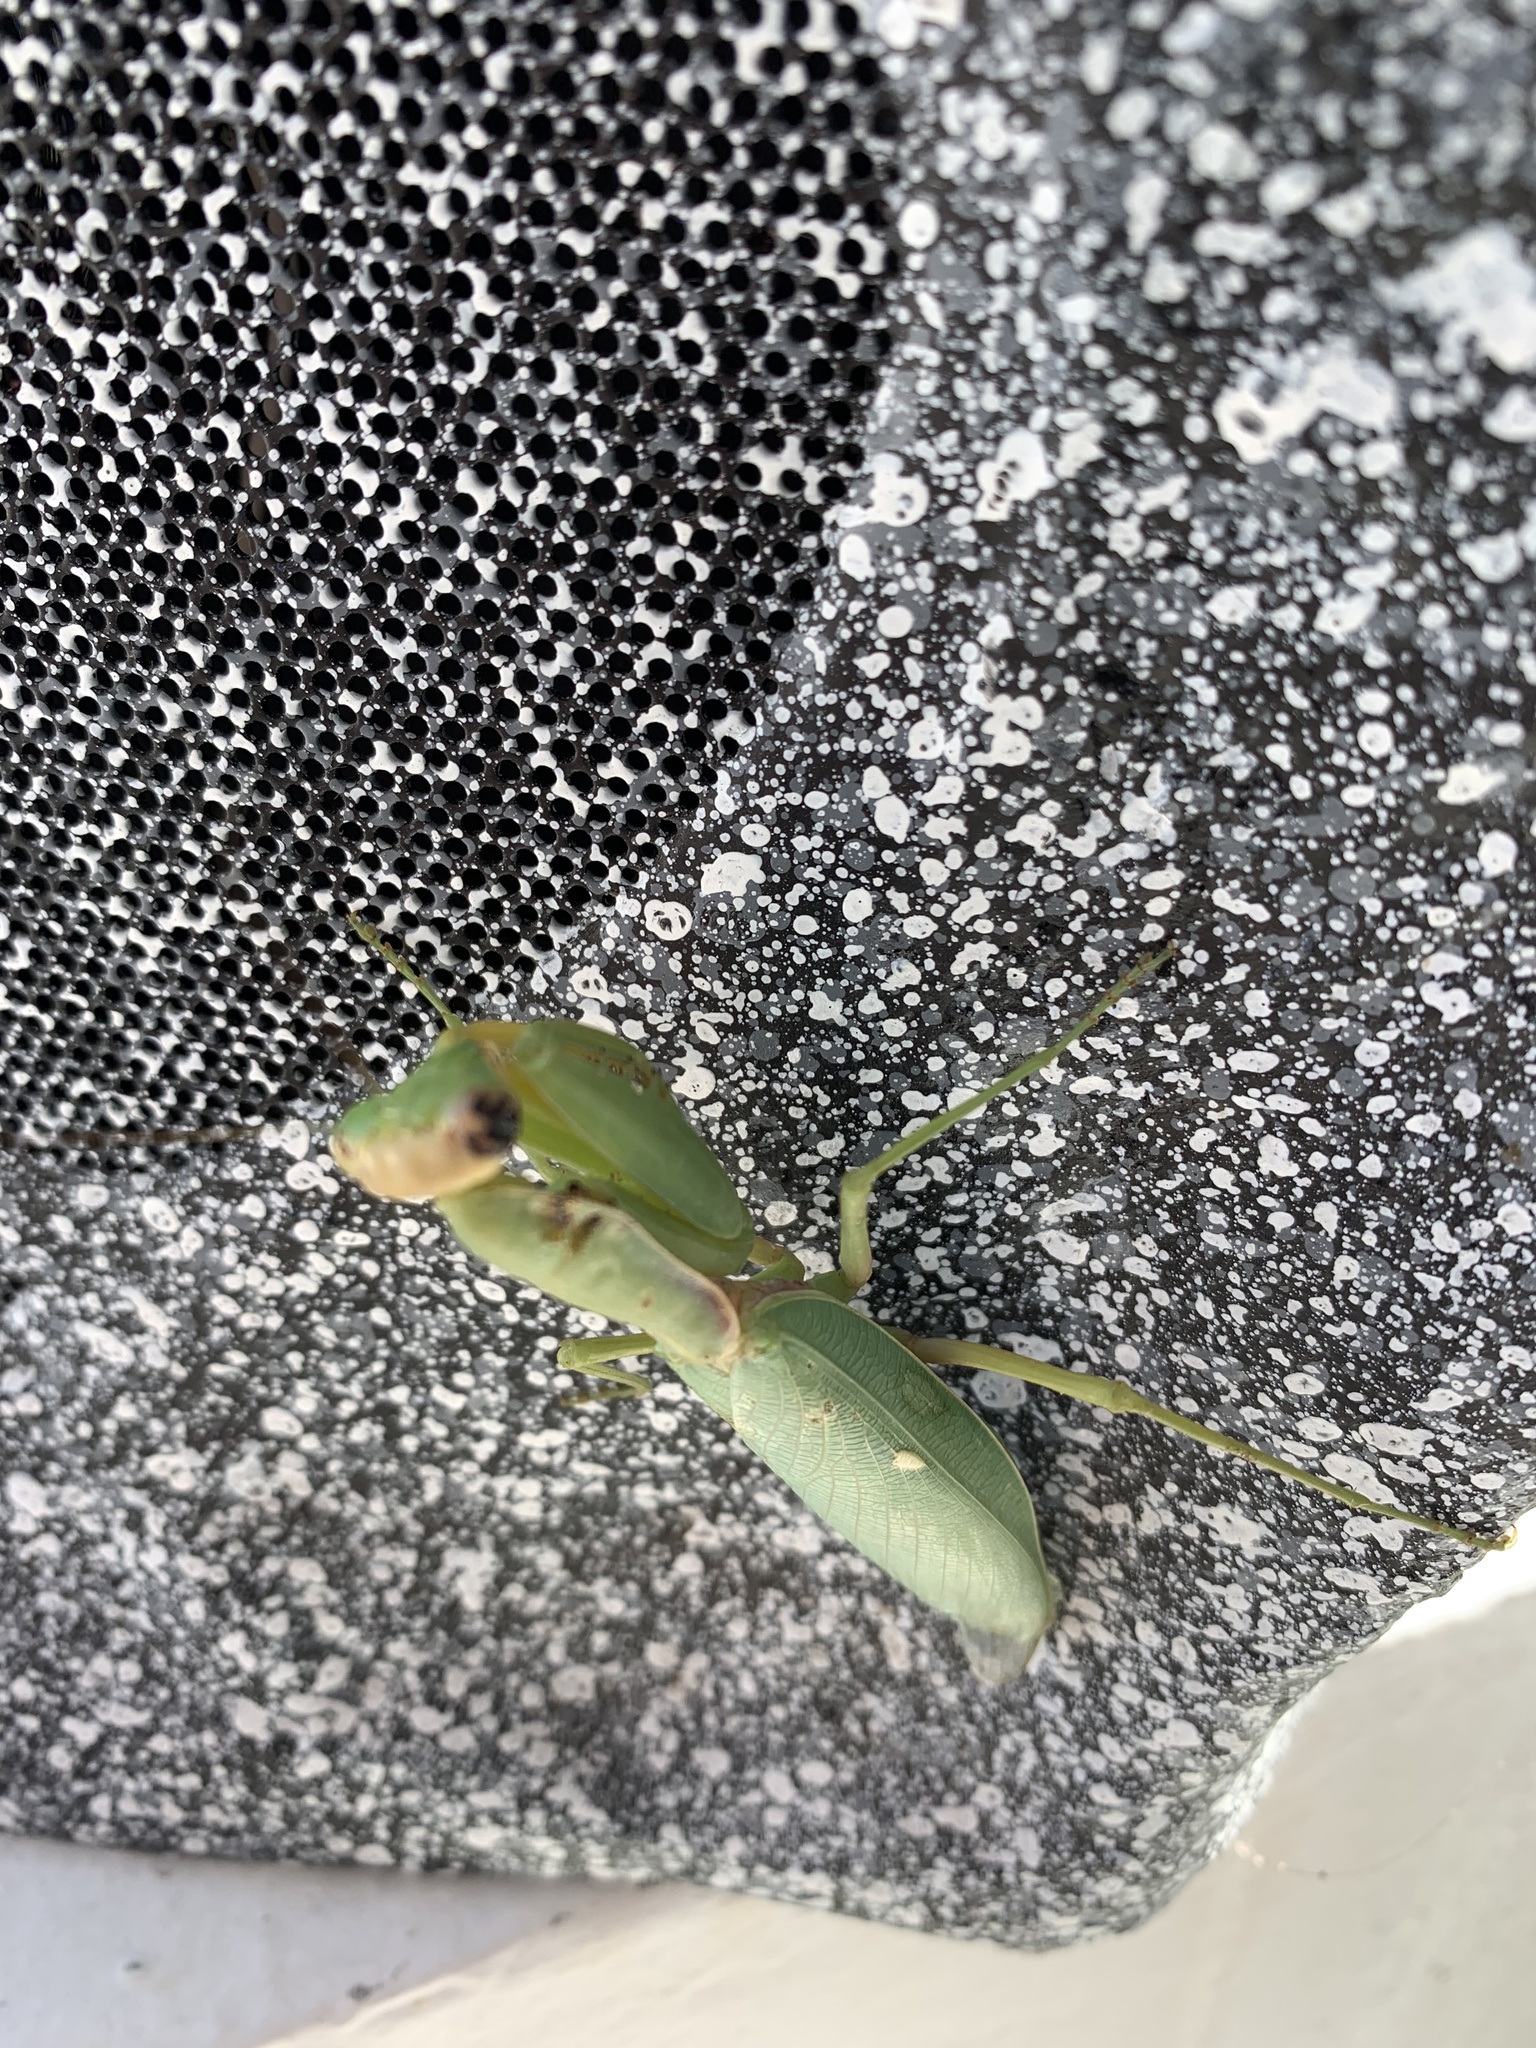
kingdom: Animalia
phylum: Arthropoda
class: Insecta
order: Mantodea
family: Mantidae
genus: Hierodula
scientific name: Hierodula transcaucasica
